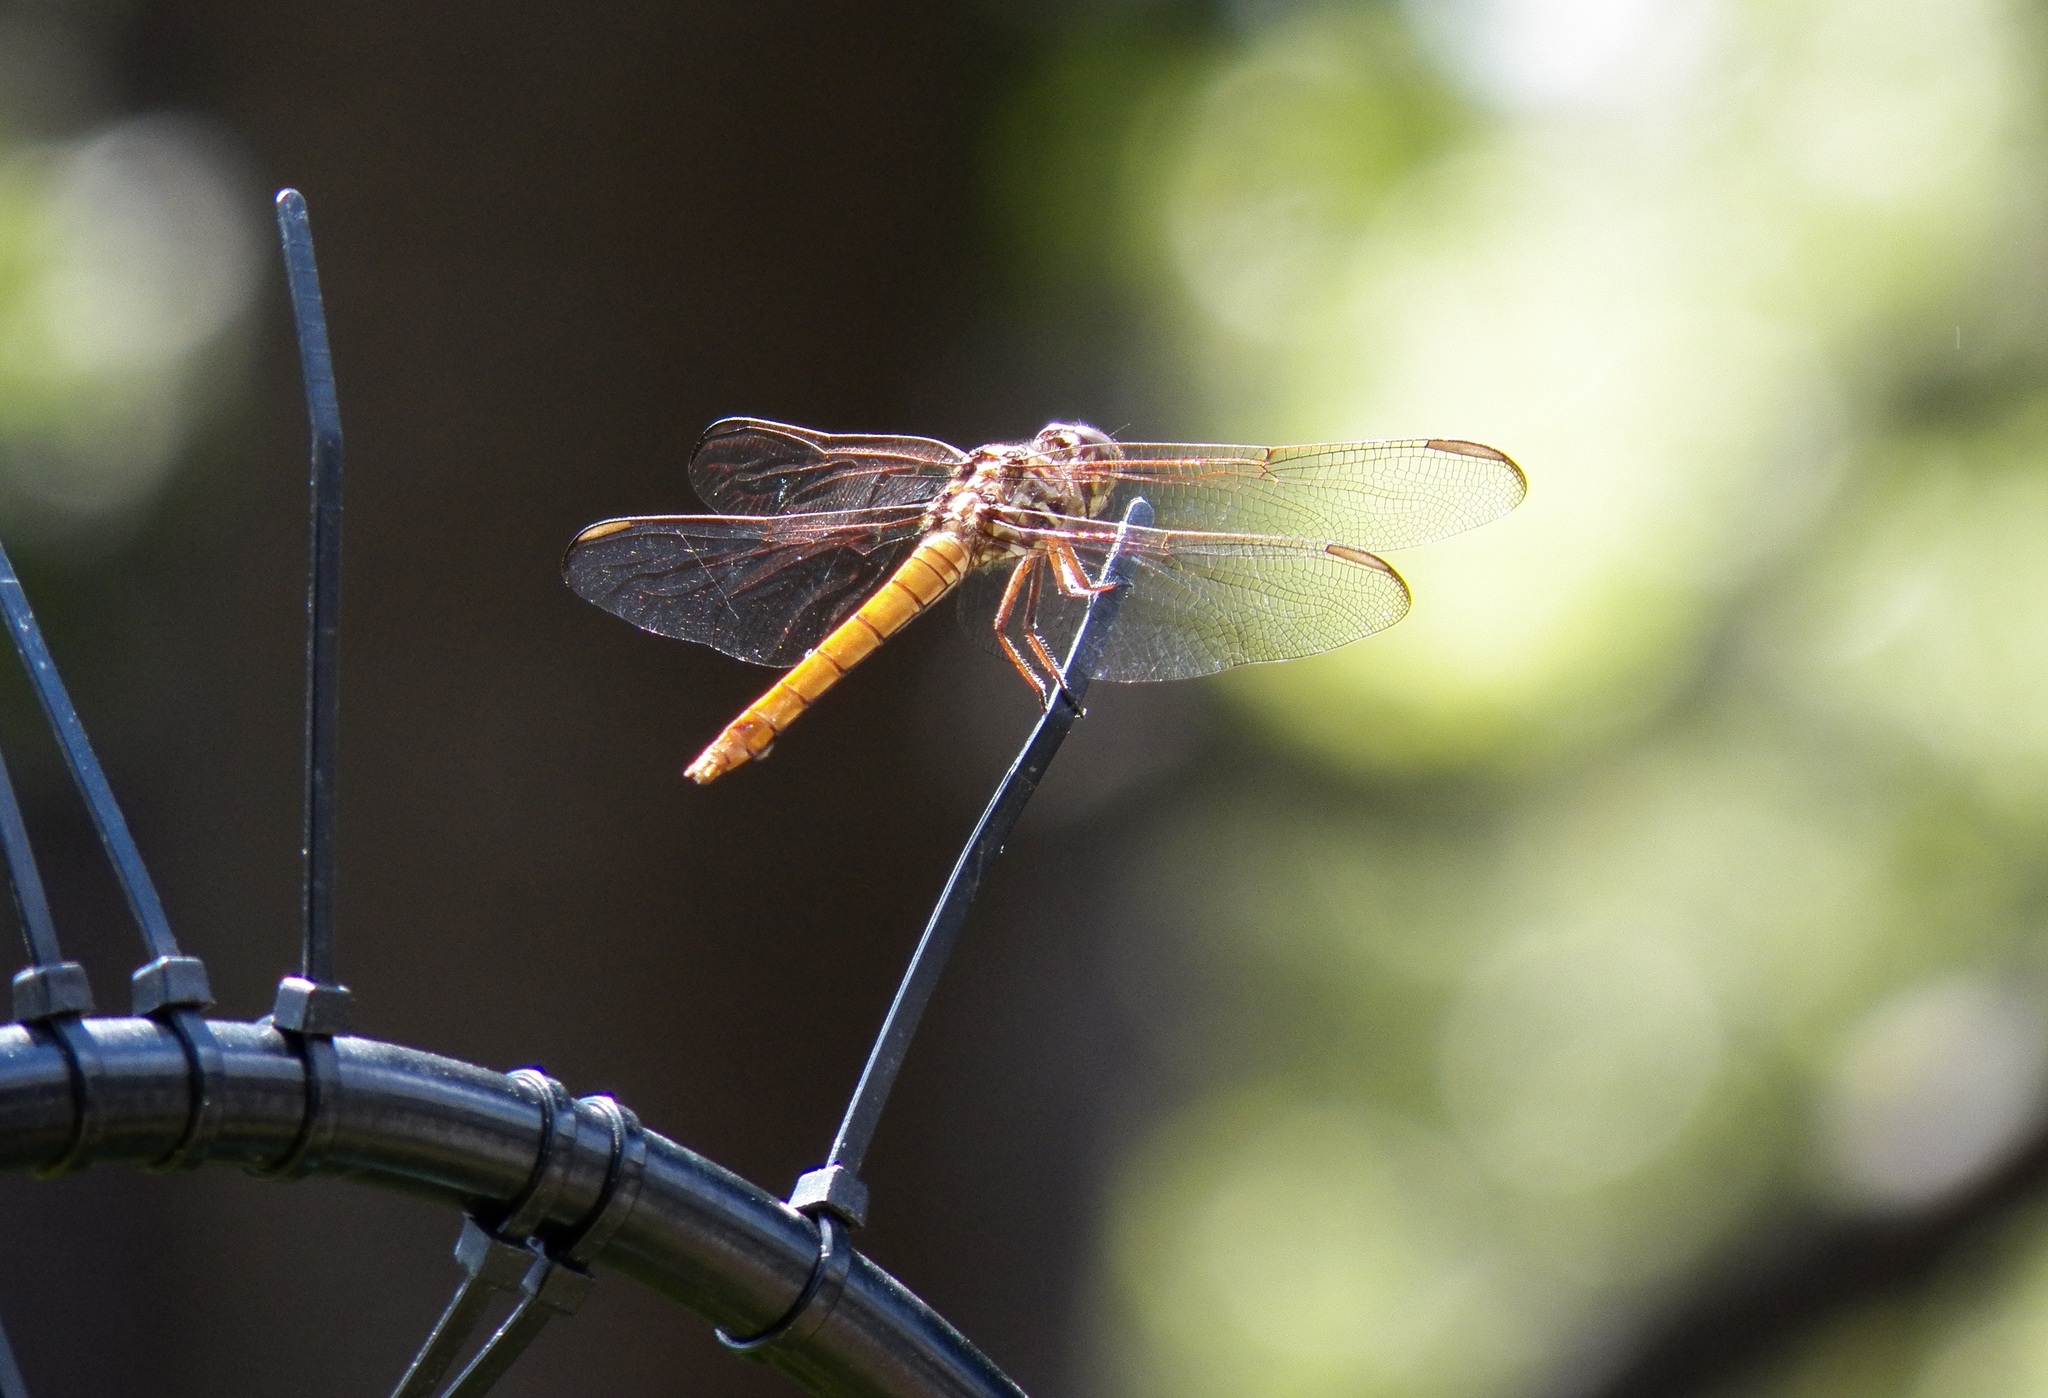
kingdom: Animalia
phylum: Arthropoda
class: Insecta
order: Odonata
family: Libellulidae
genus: Orthemis
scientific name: Orthemis ferruginea
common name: Roseate skimmer
